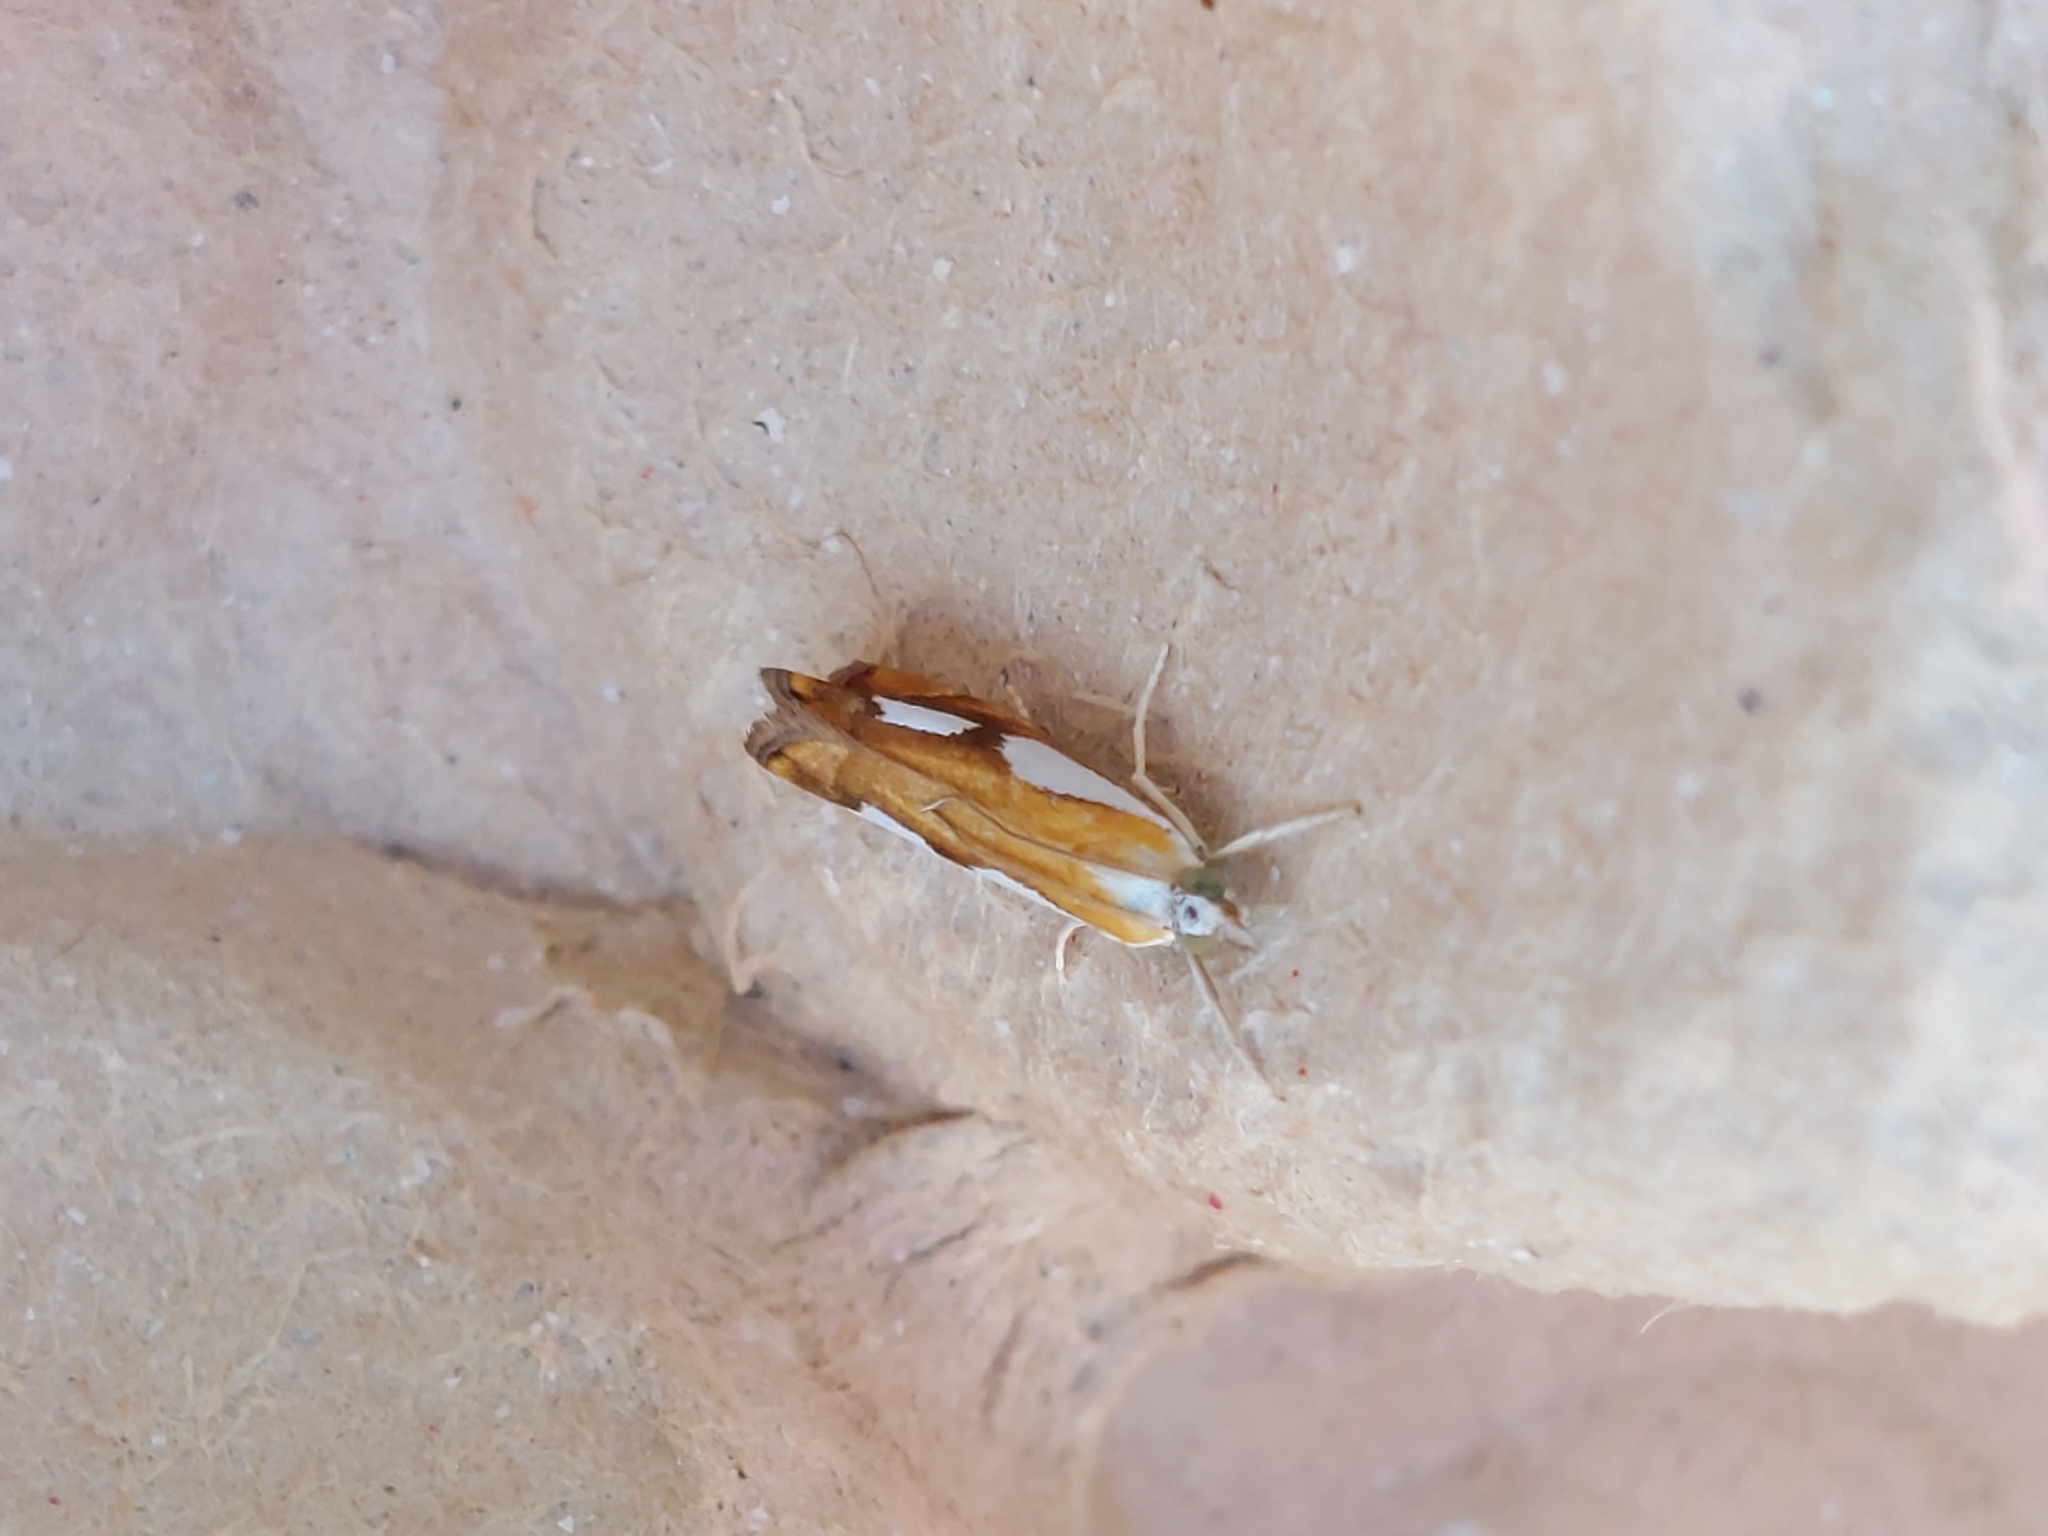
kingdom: Animalia
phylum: Arthropoda
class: Insecta
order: Lepidoptera
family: Crambidae
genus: Catoptria
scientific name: Catoptria pinella
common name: Pearl grass-veneer
